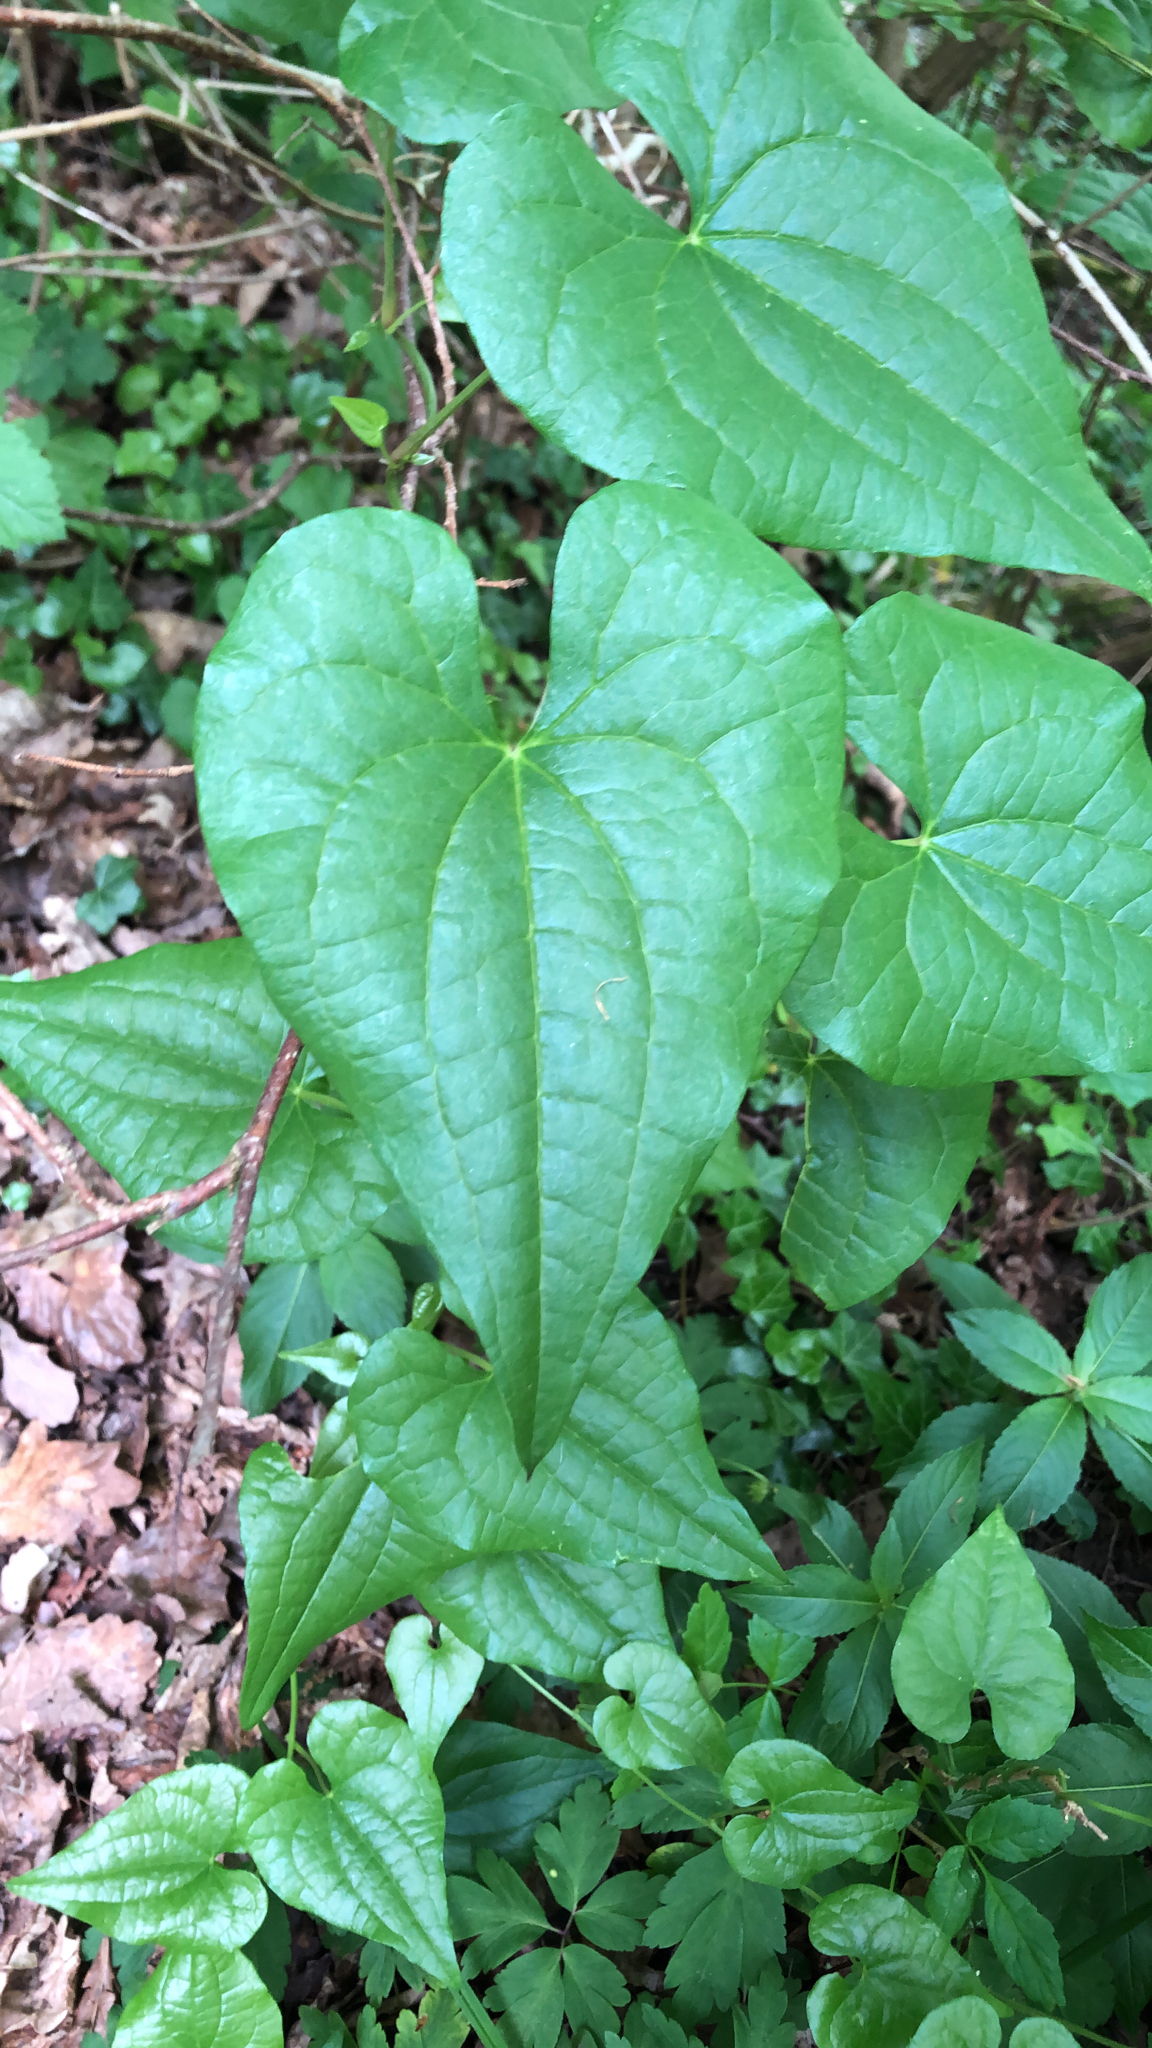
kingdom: Plantae
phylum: Tracheophyta
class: Liliopsida
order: Dioscoreales
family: Dioscoreaceae
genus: Dioscorea
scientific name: Dioscorea communis
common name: Black-bindweed
